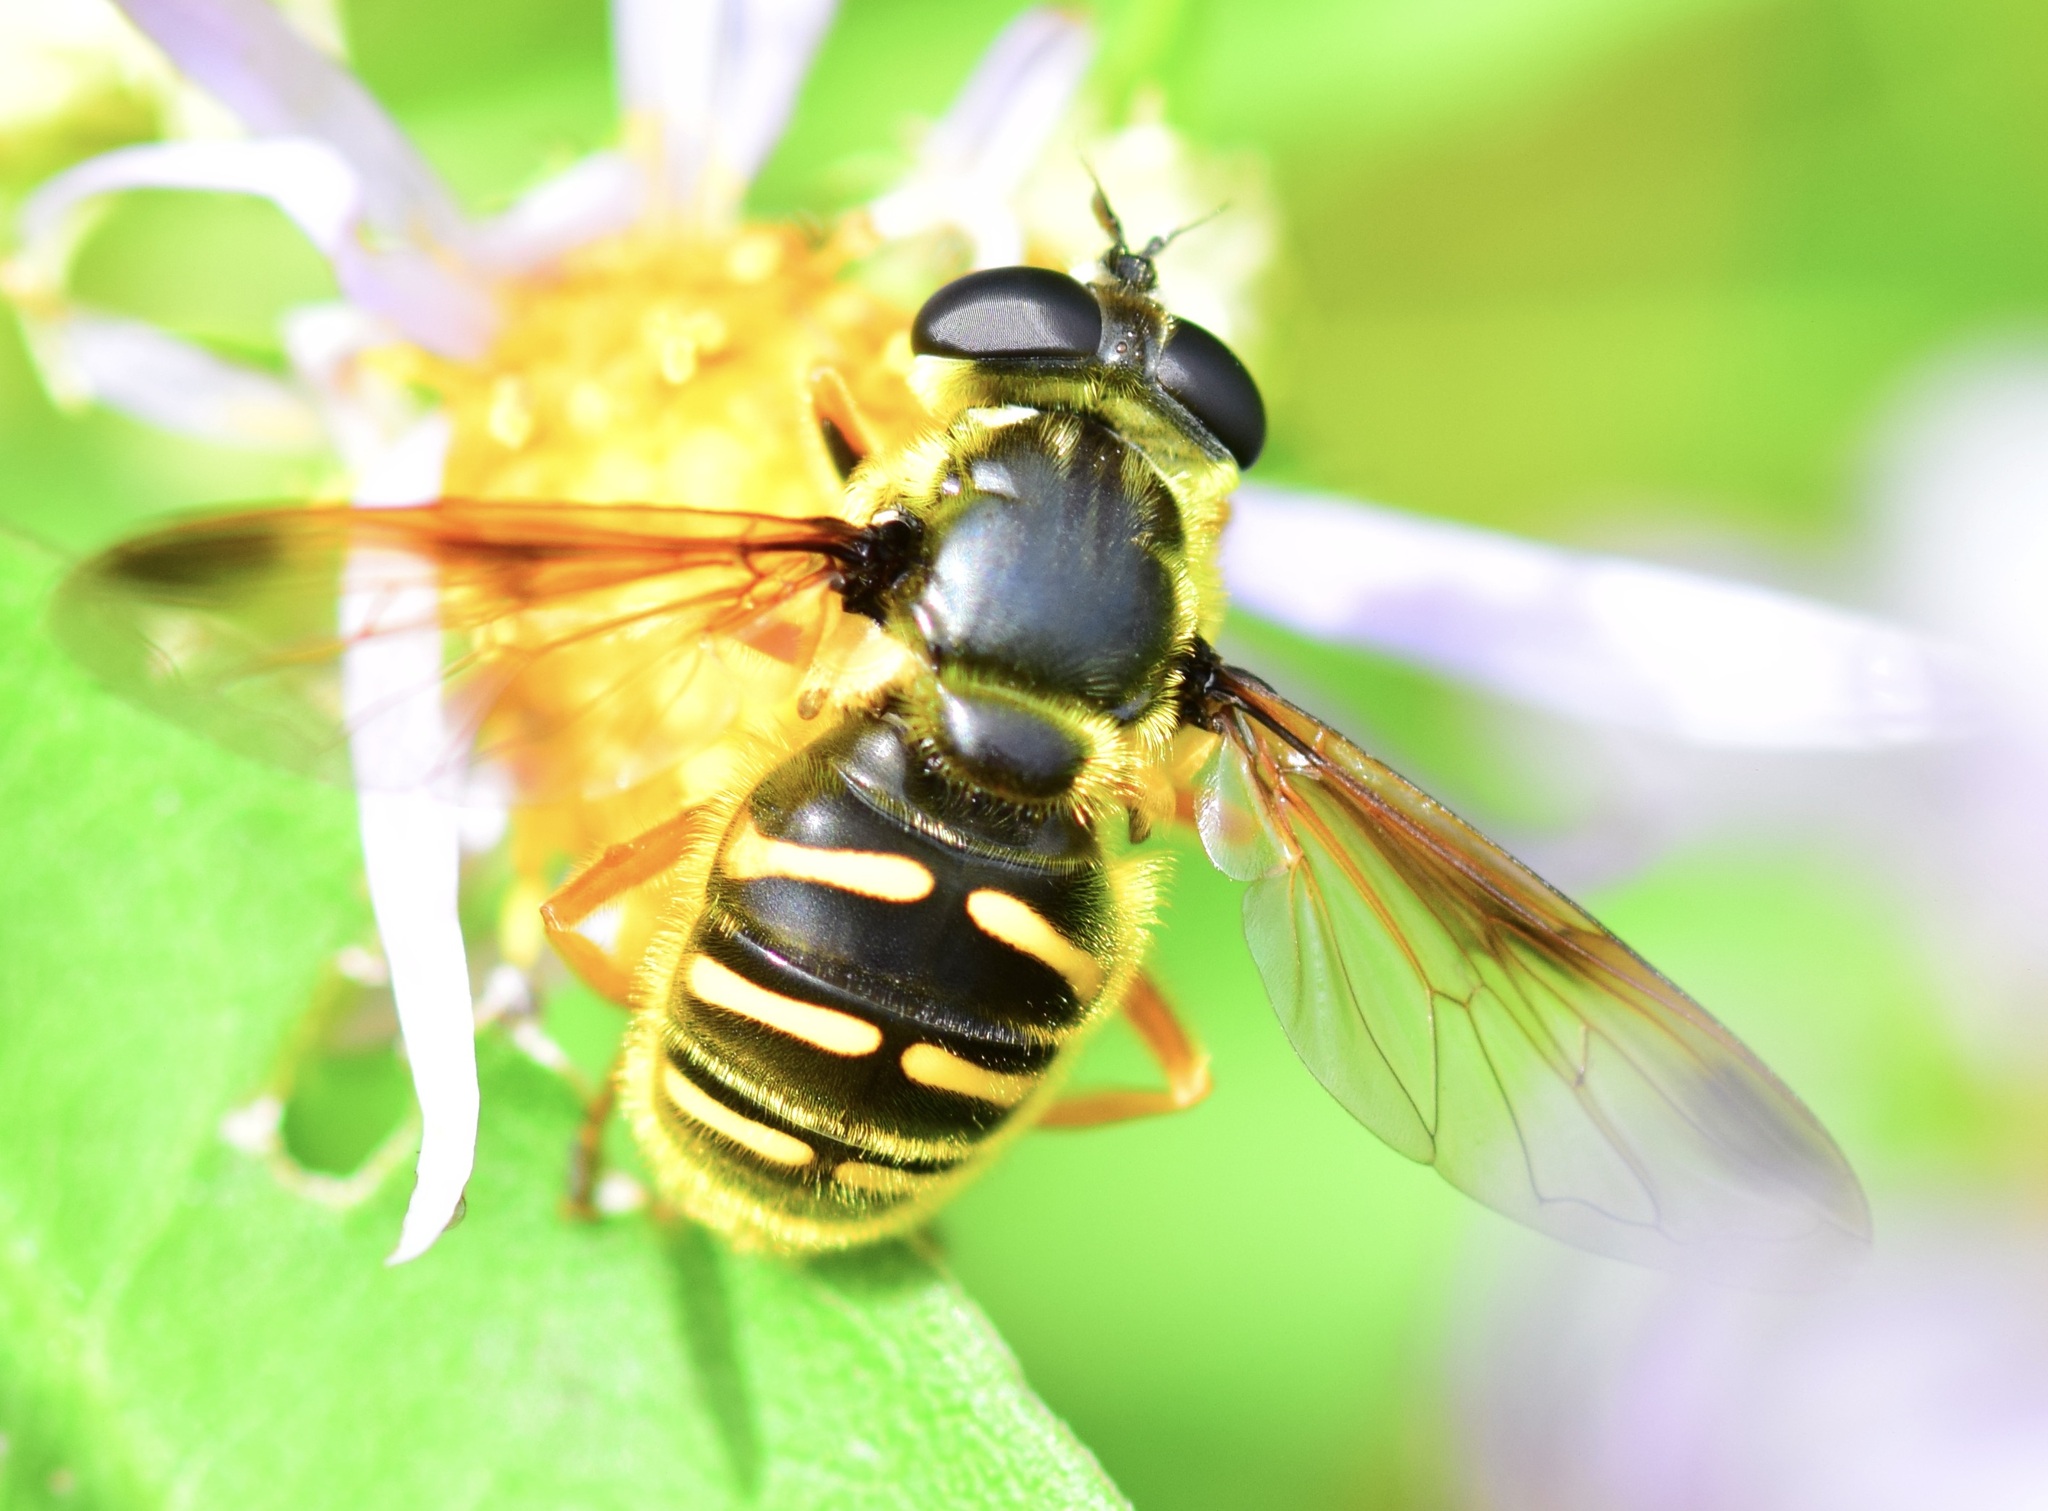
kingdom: Animalia
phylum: Arthropoda
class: Insecta
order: Diptera
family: Syrphidae
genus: Sericomyia
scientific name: Sericomyia chrysotoxoides
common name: Oblique-banded pond fly
